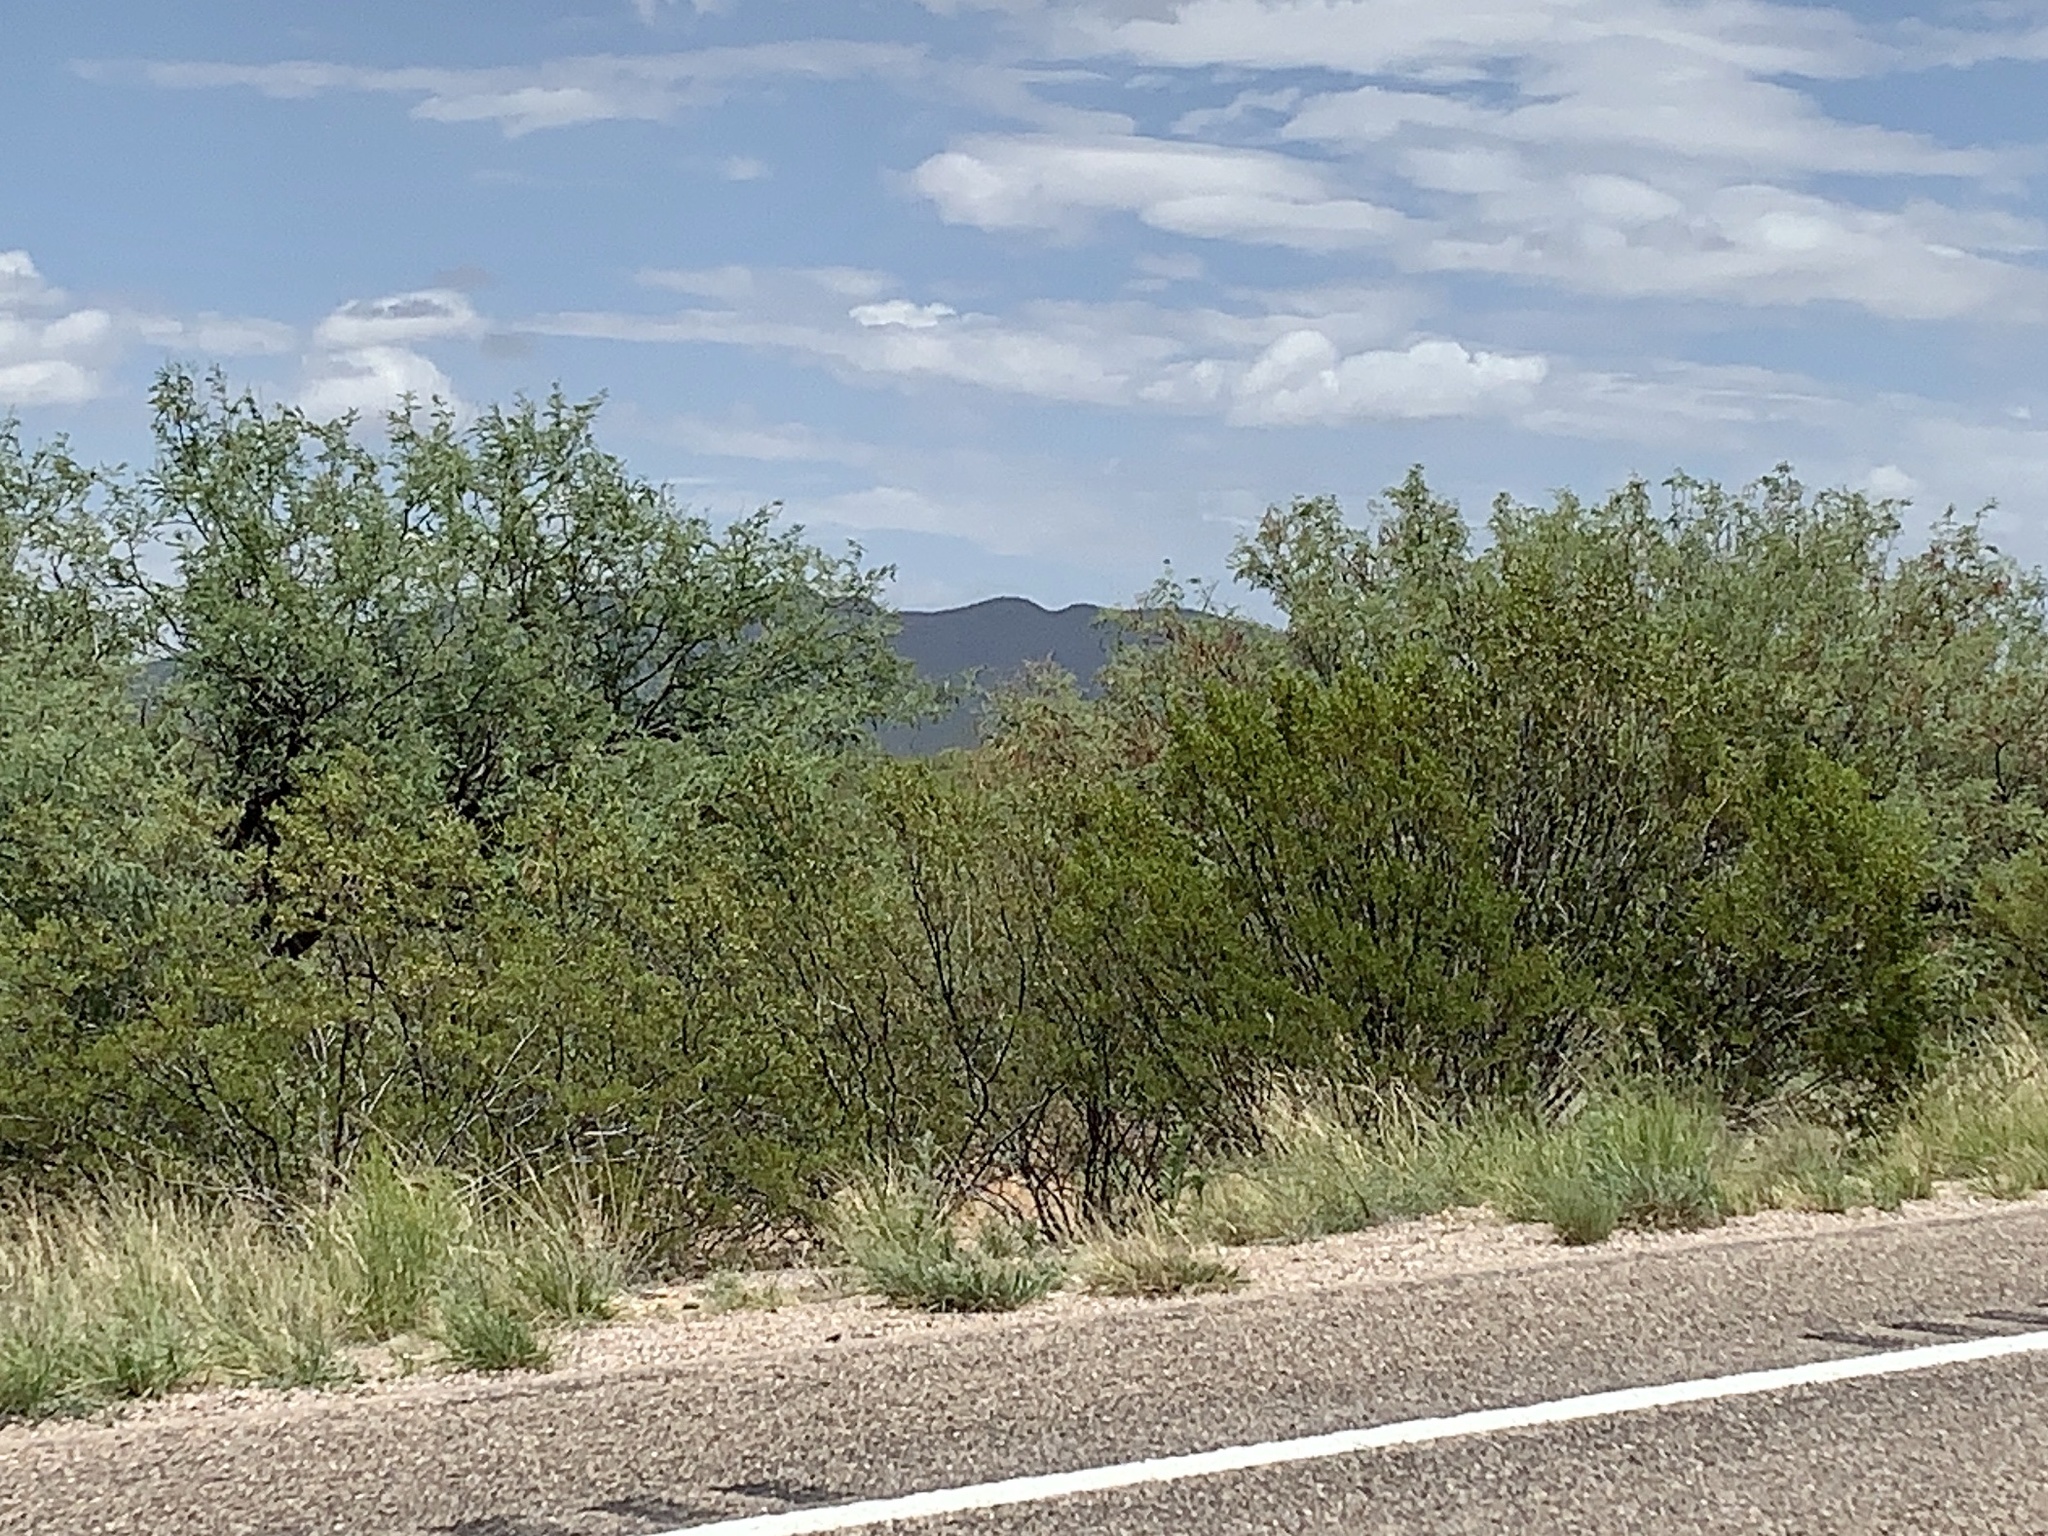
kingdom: Plantae
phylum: Tracheophyta
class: Magnoliopsida
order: Zygophyllales
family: Zygophyllaceae
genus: Larrea
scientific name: Larrea tridentata
